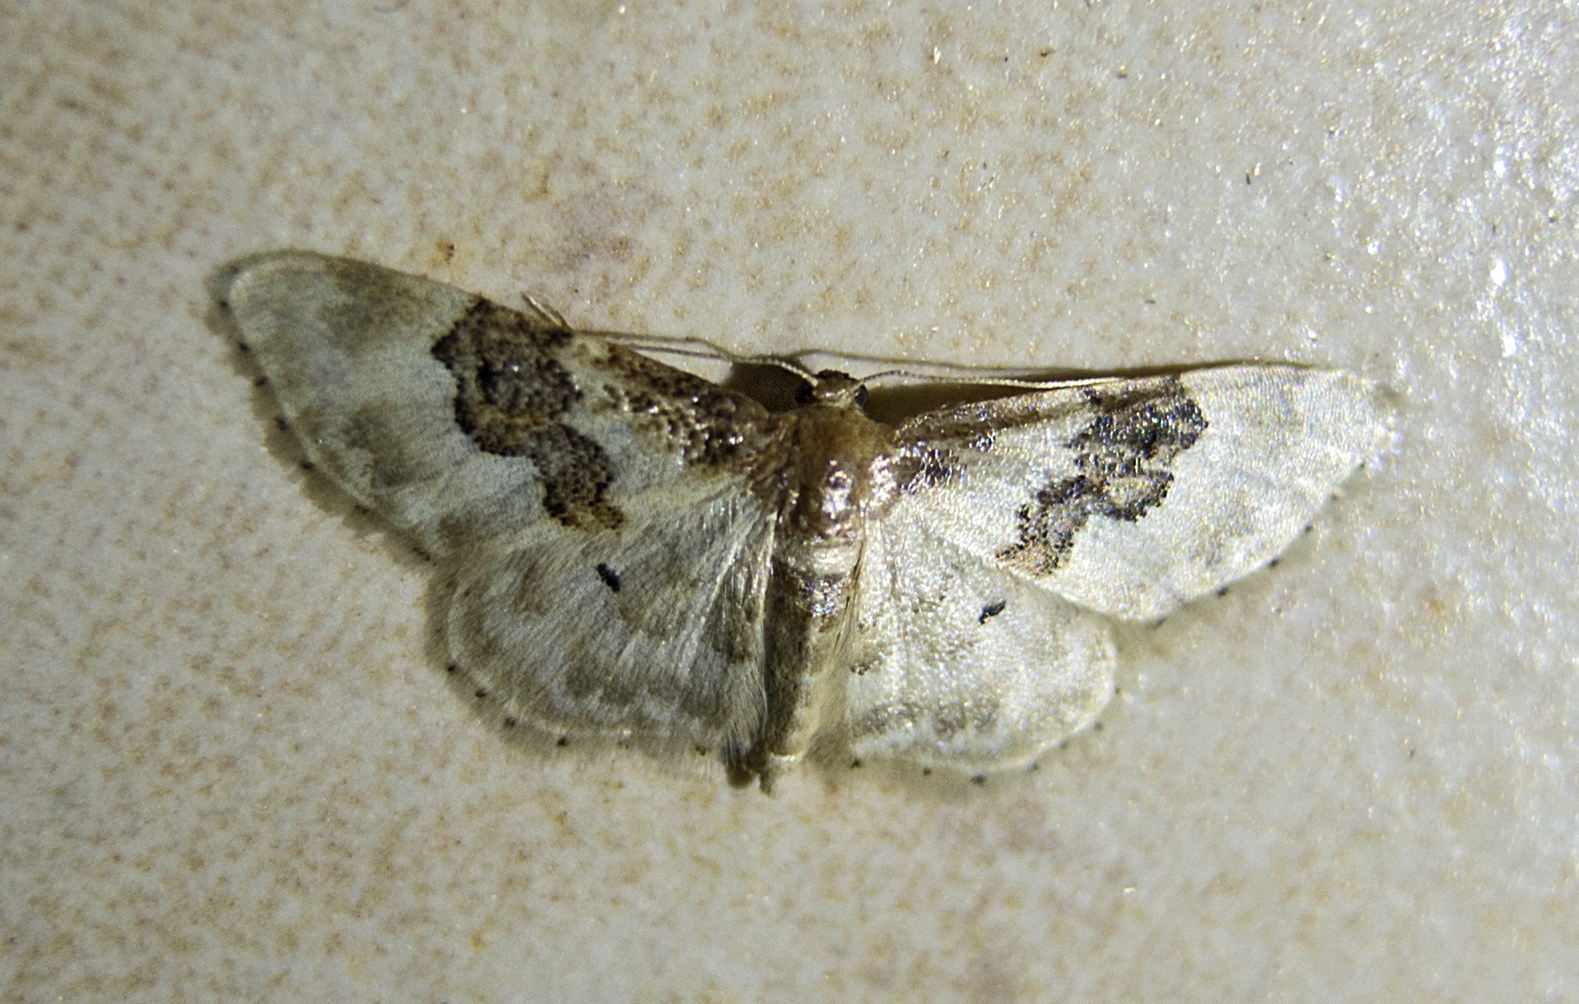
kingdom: Animalia
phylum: Arthropoda
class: Insecta
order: Lepidoptera
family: Geometridae
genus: Idaea
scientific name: Idaea rusticata
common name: Least carpet
